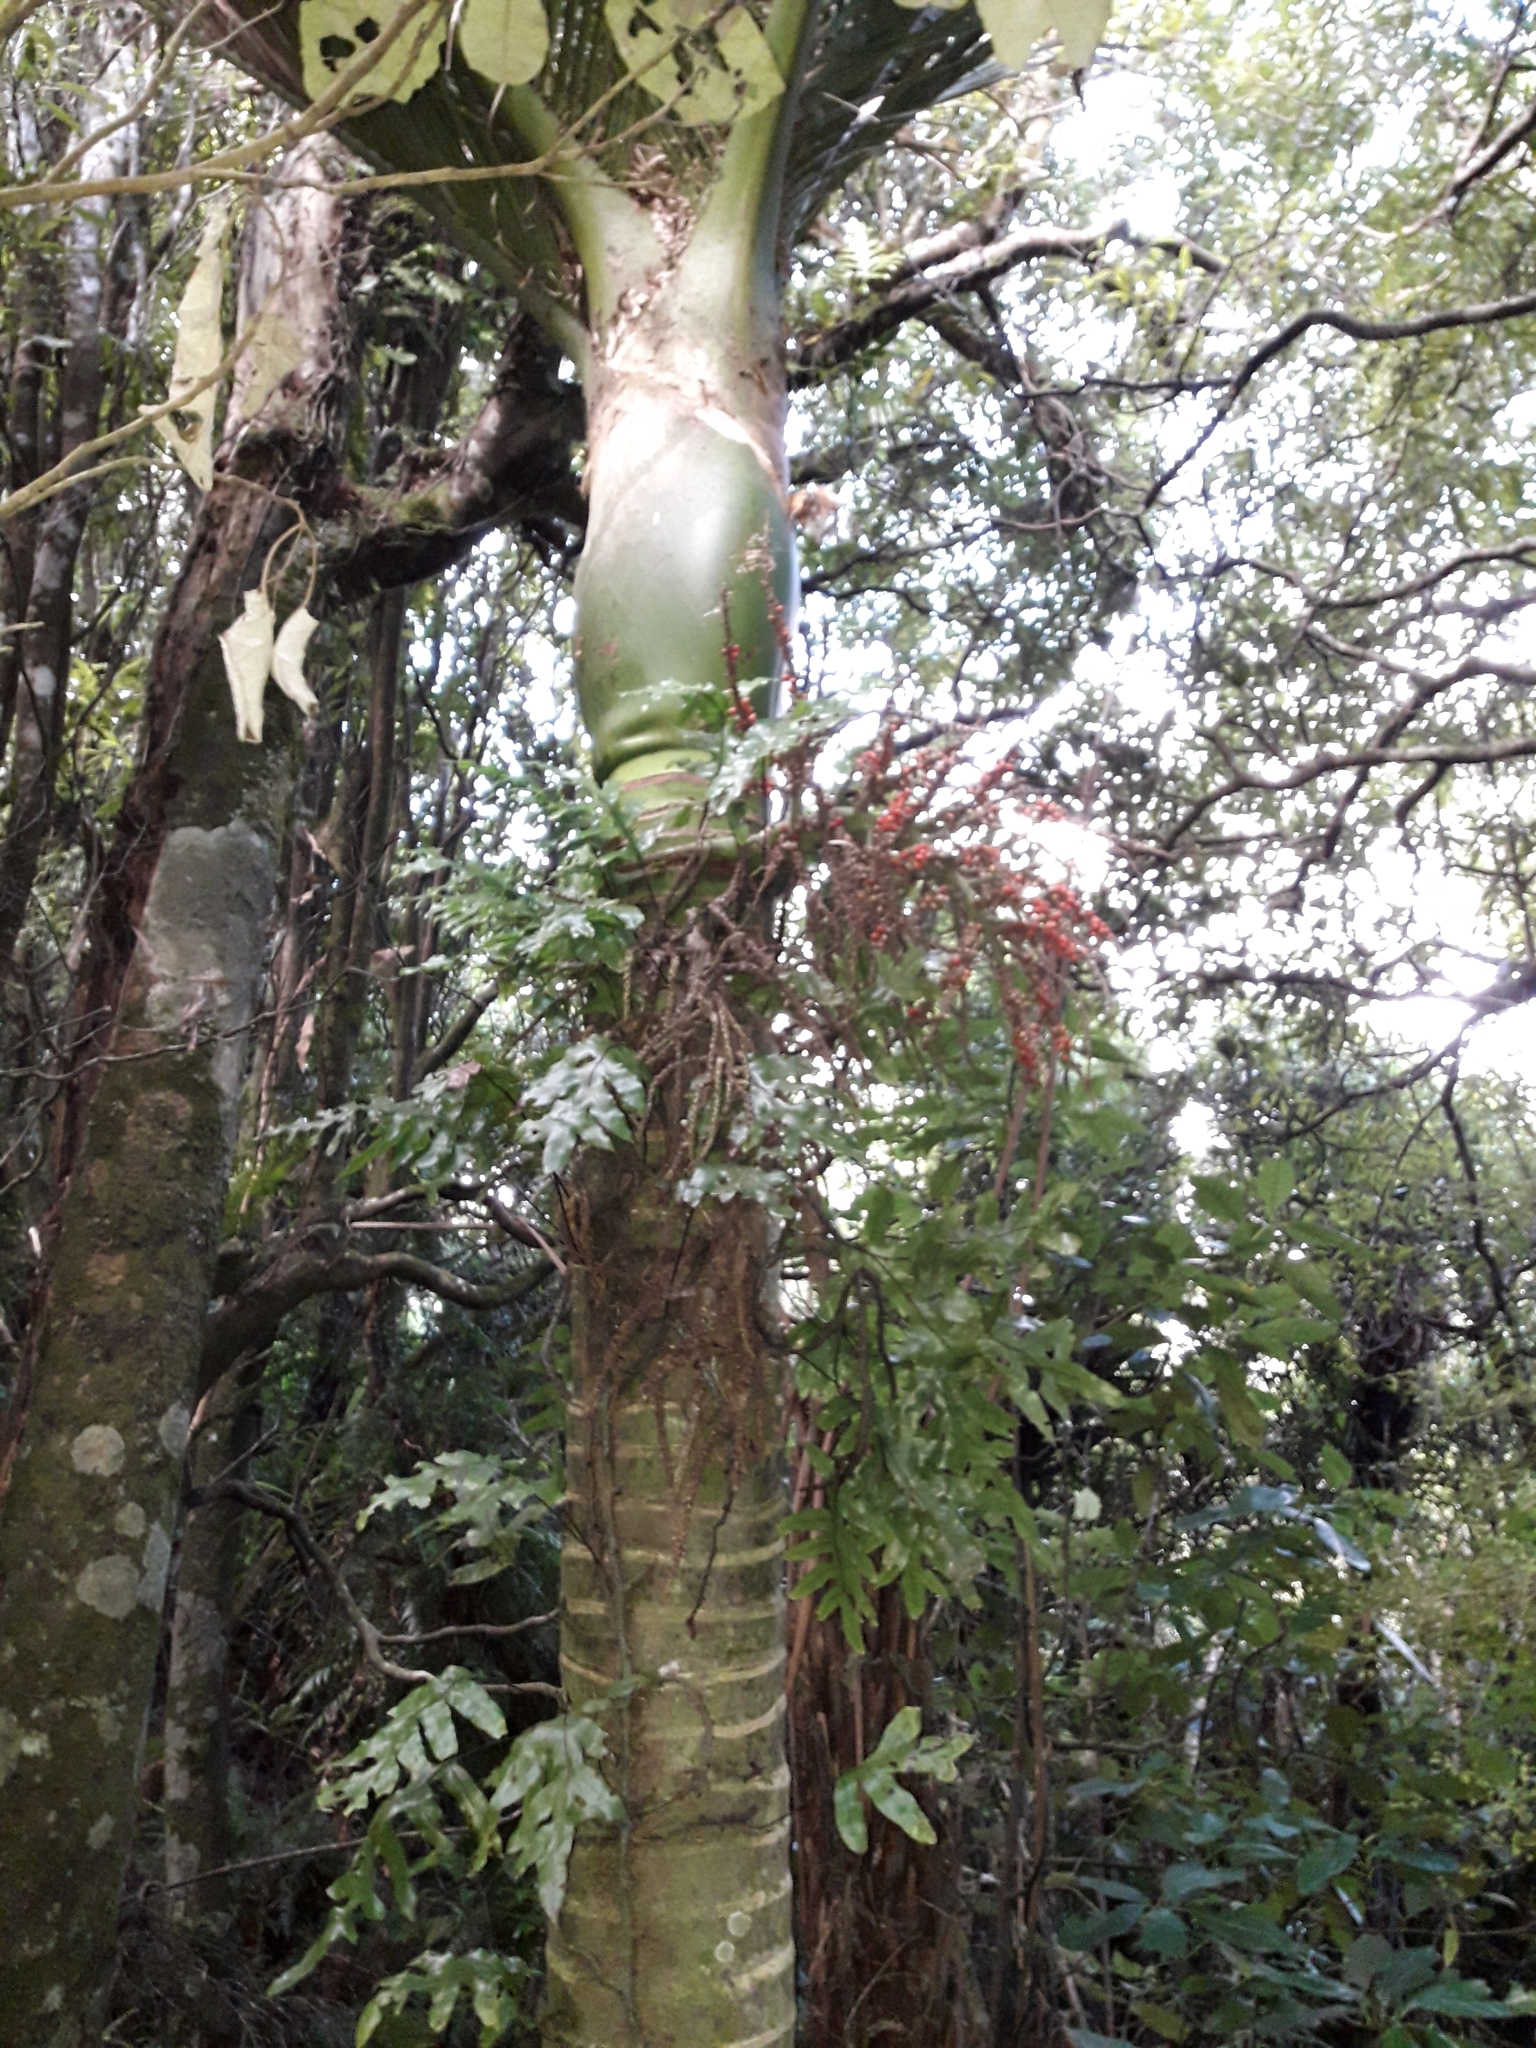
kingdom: Plantae
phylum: Tracheophyta
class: Liliopsida
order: Arecales
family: Arecaceae
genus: Rhopalostylis
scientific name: Rhopalostylis sapida
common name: Feather-duster palm
